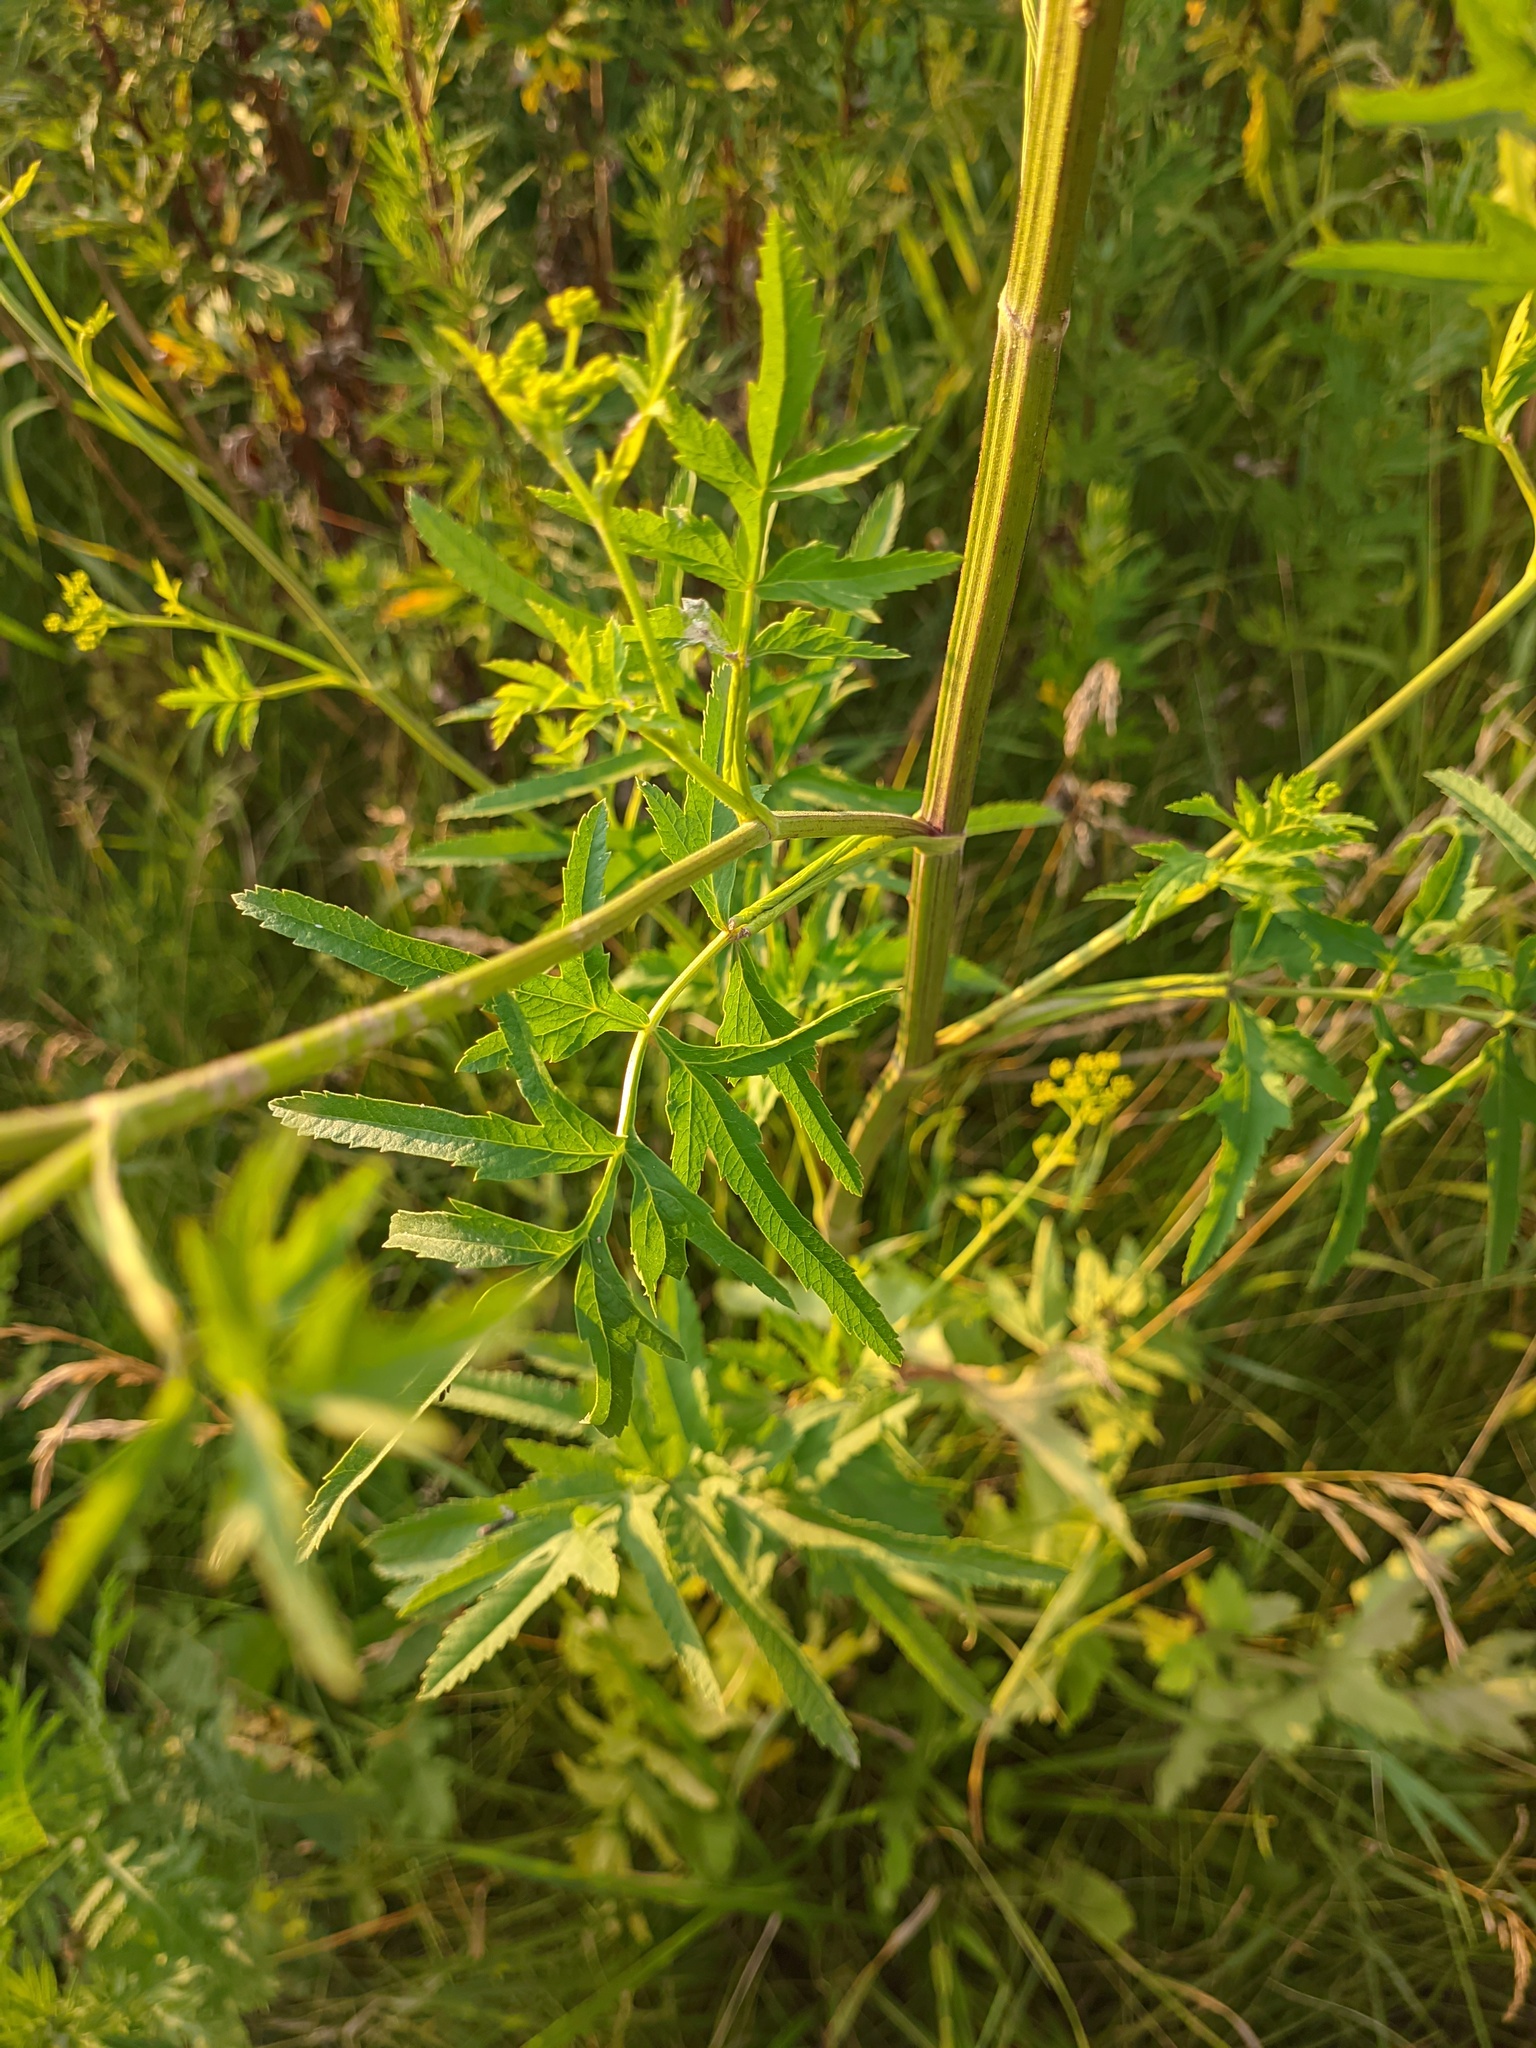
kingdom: Plantae
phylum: Tracheophyta
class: Magnoliopsida
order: Apiales
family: Apiaceae
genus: Pastinaca
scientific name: Pastinaca sativa
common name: Wild parsnip
